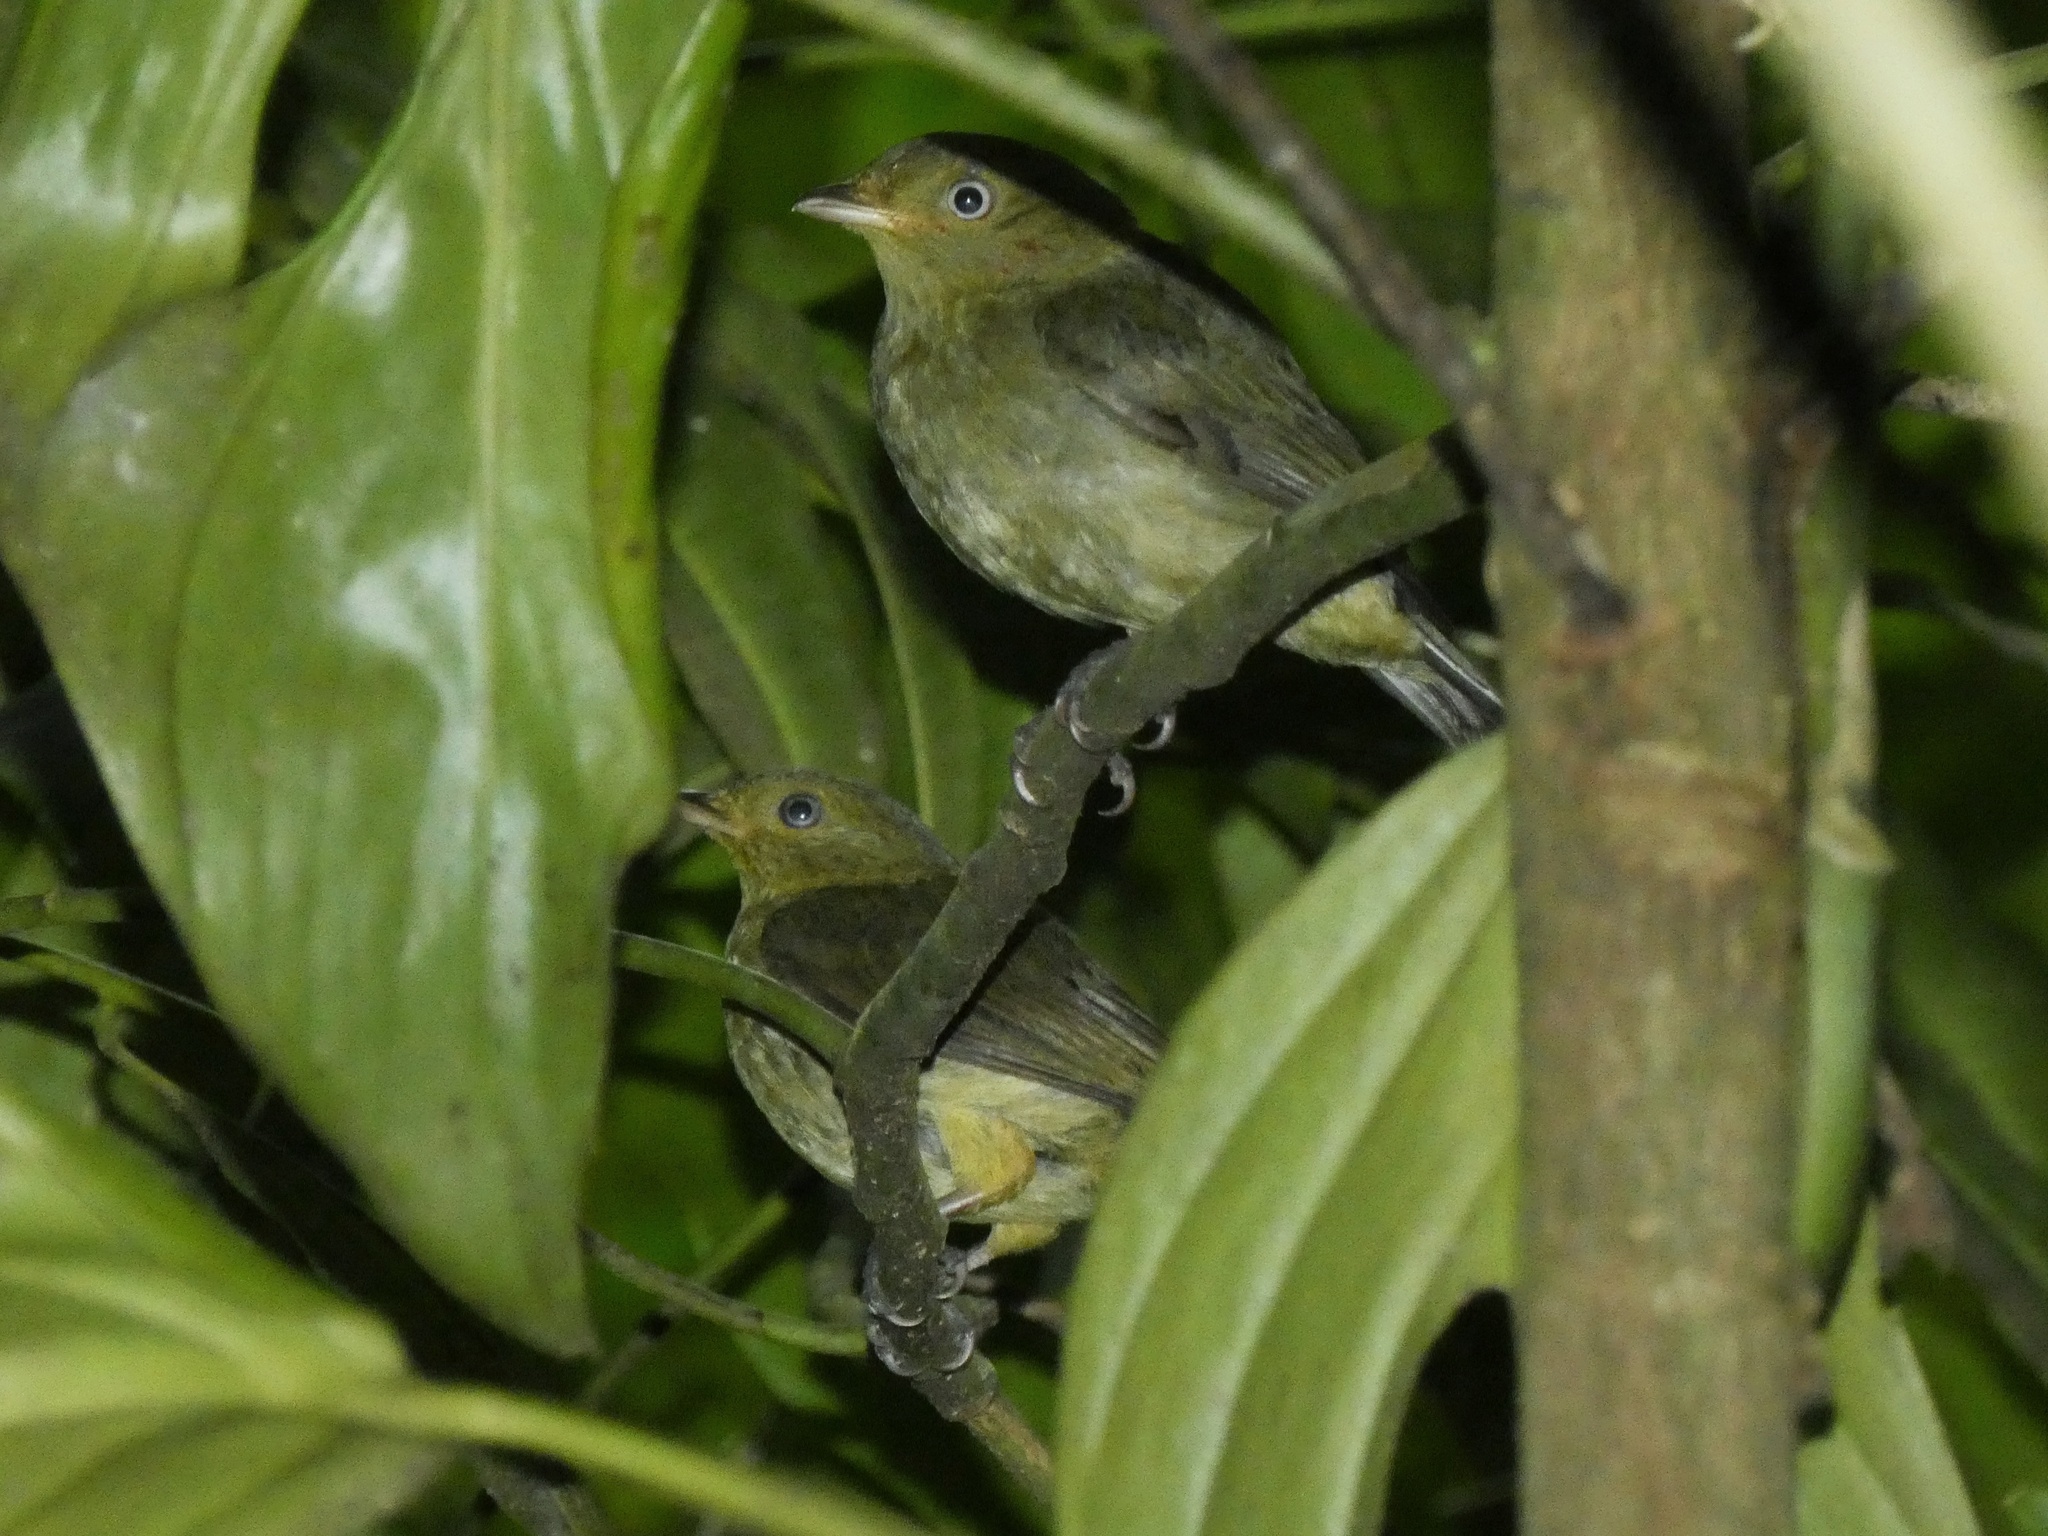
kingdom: Animalia
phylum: Chordata
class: Aves
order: Passeriformes
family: Pipridae
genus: Pipra
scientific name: Pipra mentalis
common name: Red-capped manakin
